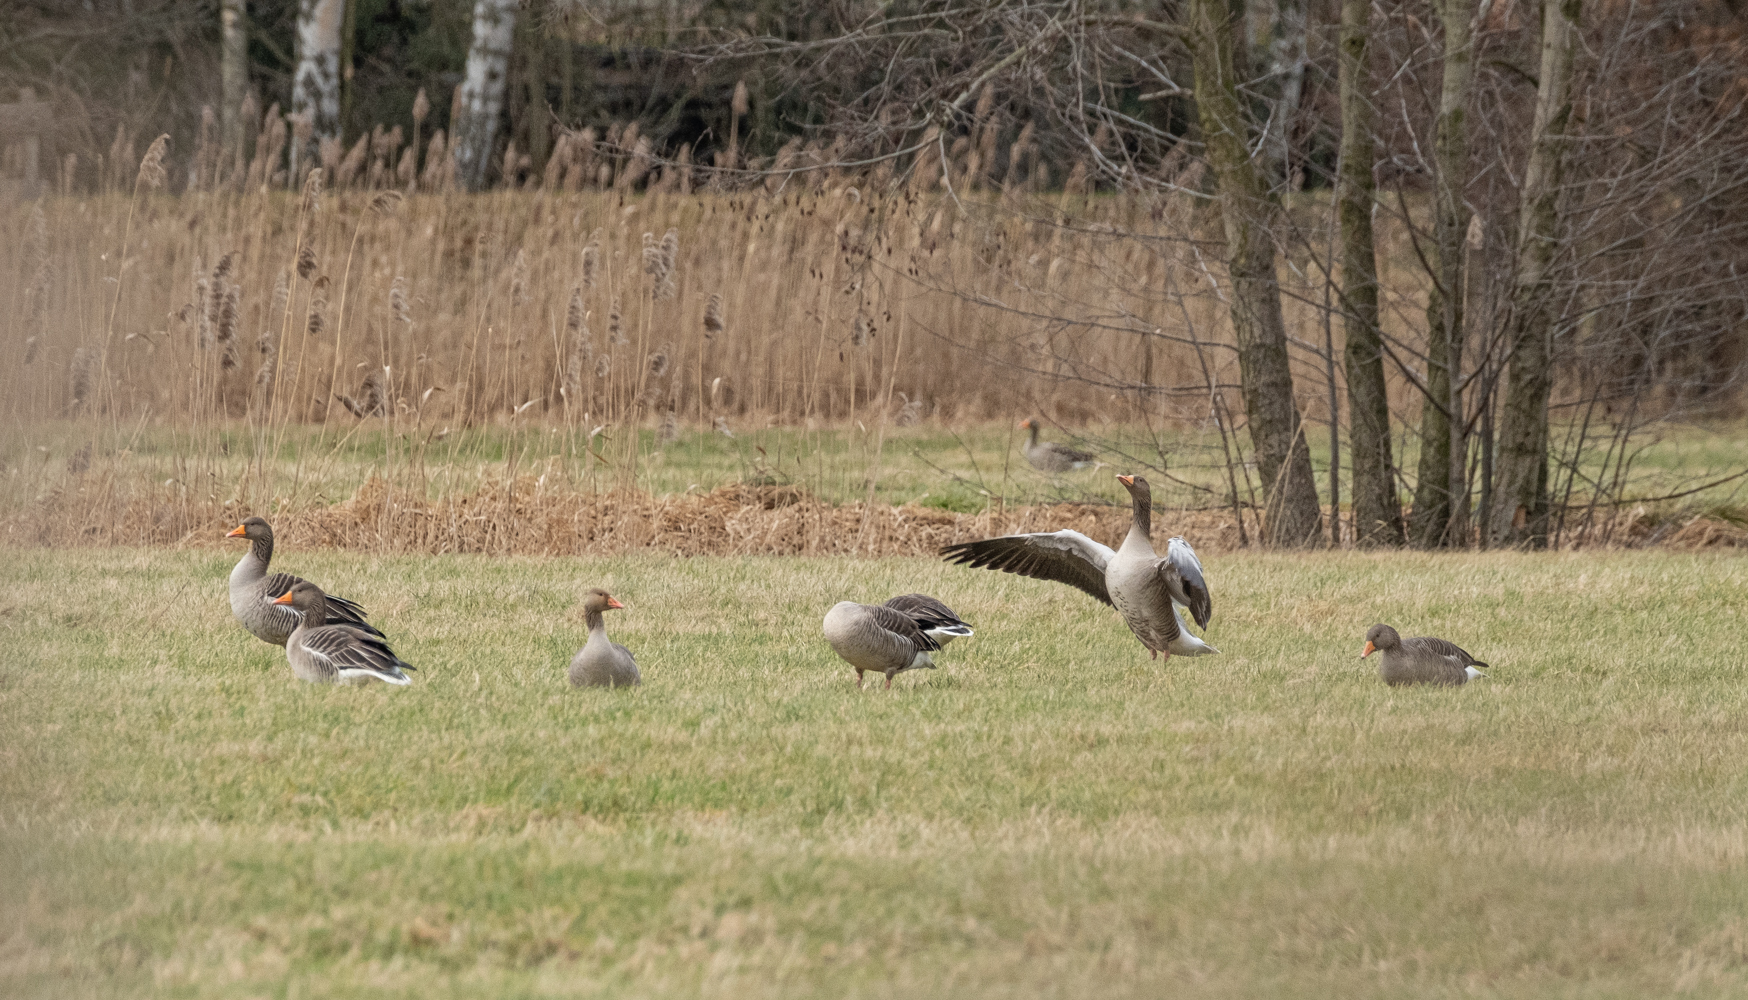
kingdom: Animalia
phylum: Chordata
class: Aves
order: Anseriformes
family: Anatidae
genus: Anser
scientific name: Anser anser
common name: Greylag goose
